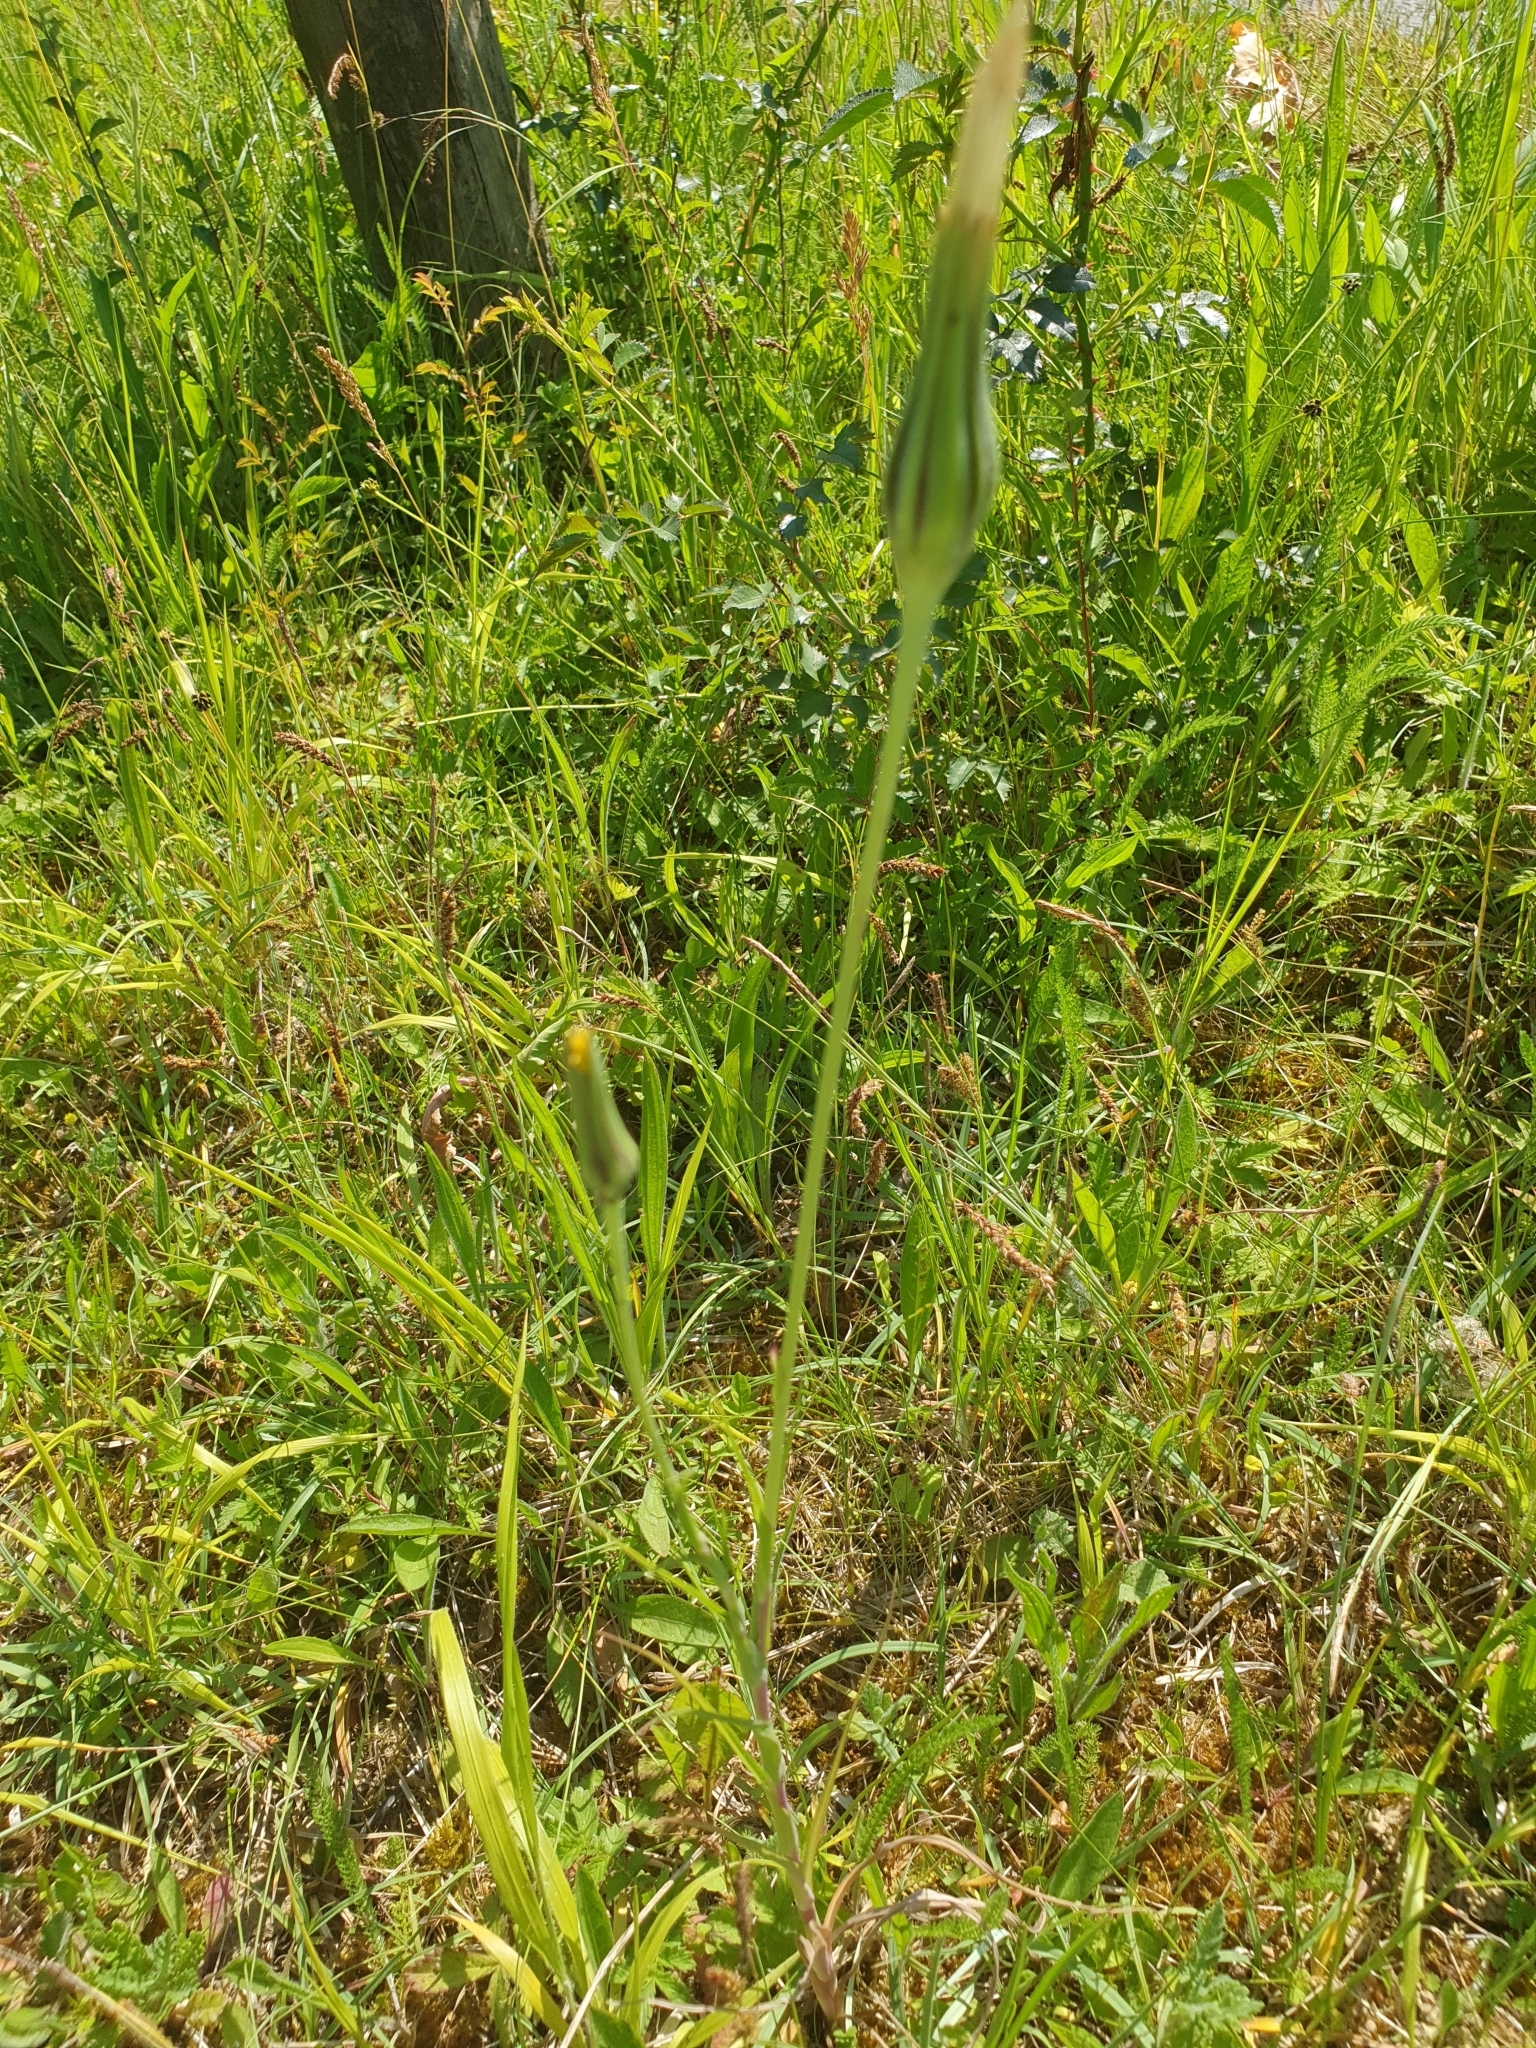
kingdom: Plantae
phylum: Tracheophyta
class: Magnoliopsida
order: Asterales
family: Asteraceae
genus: Tragopogon
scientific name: Tragopogon pratensis
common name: Goat's-beard
